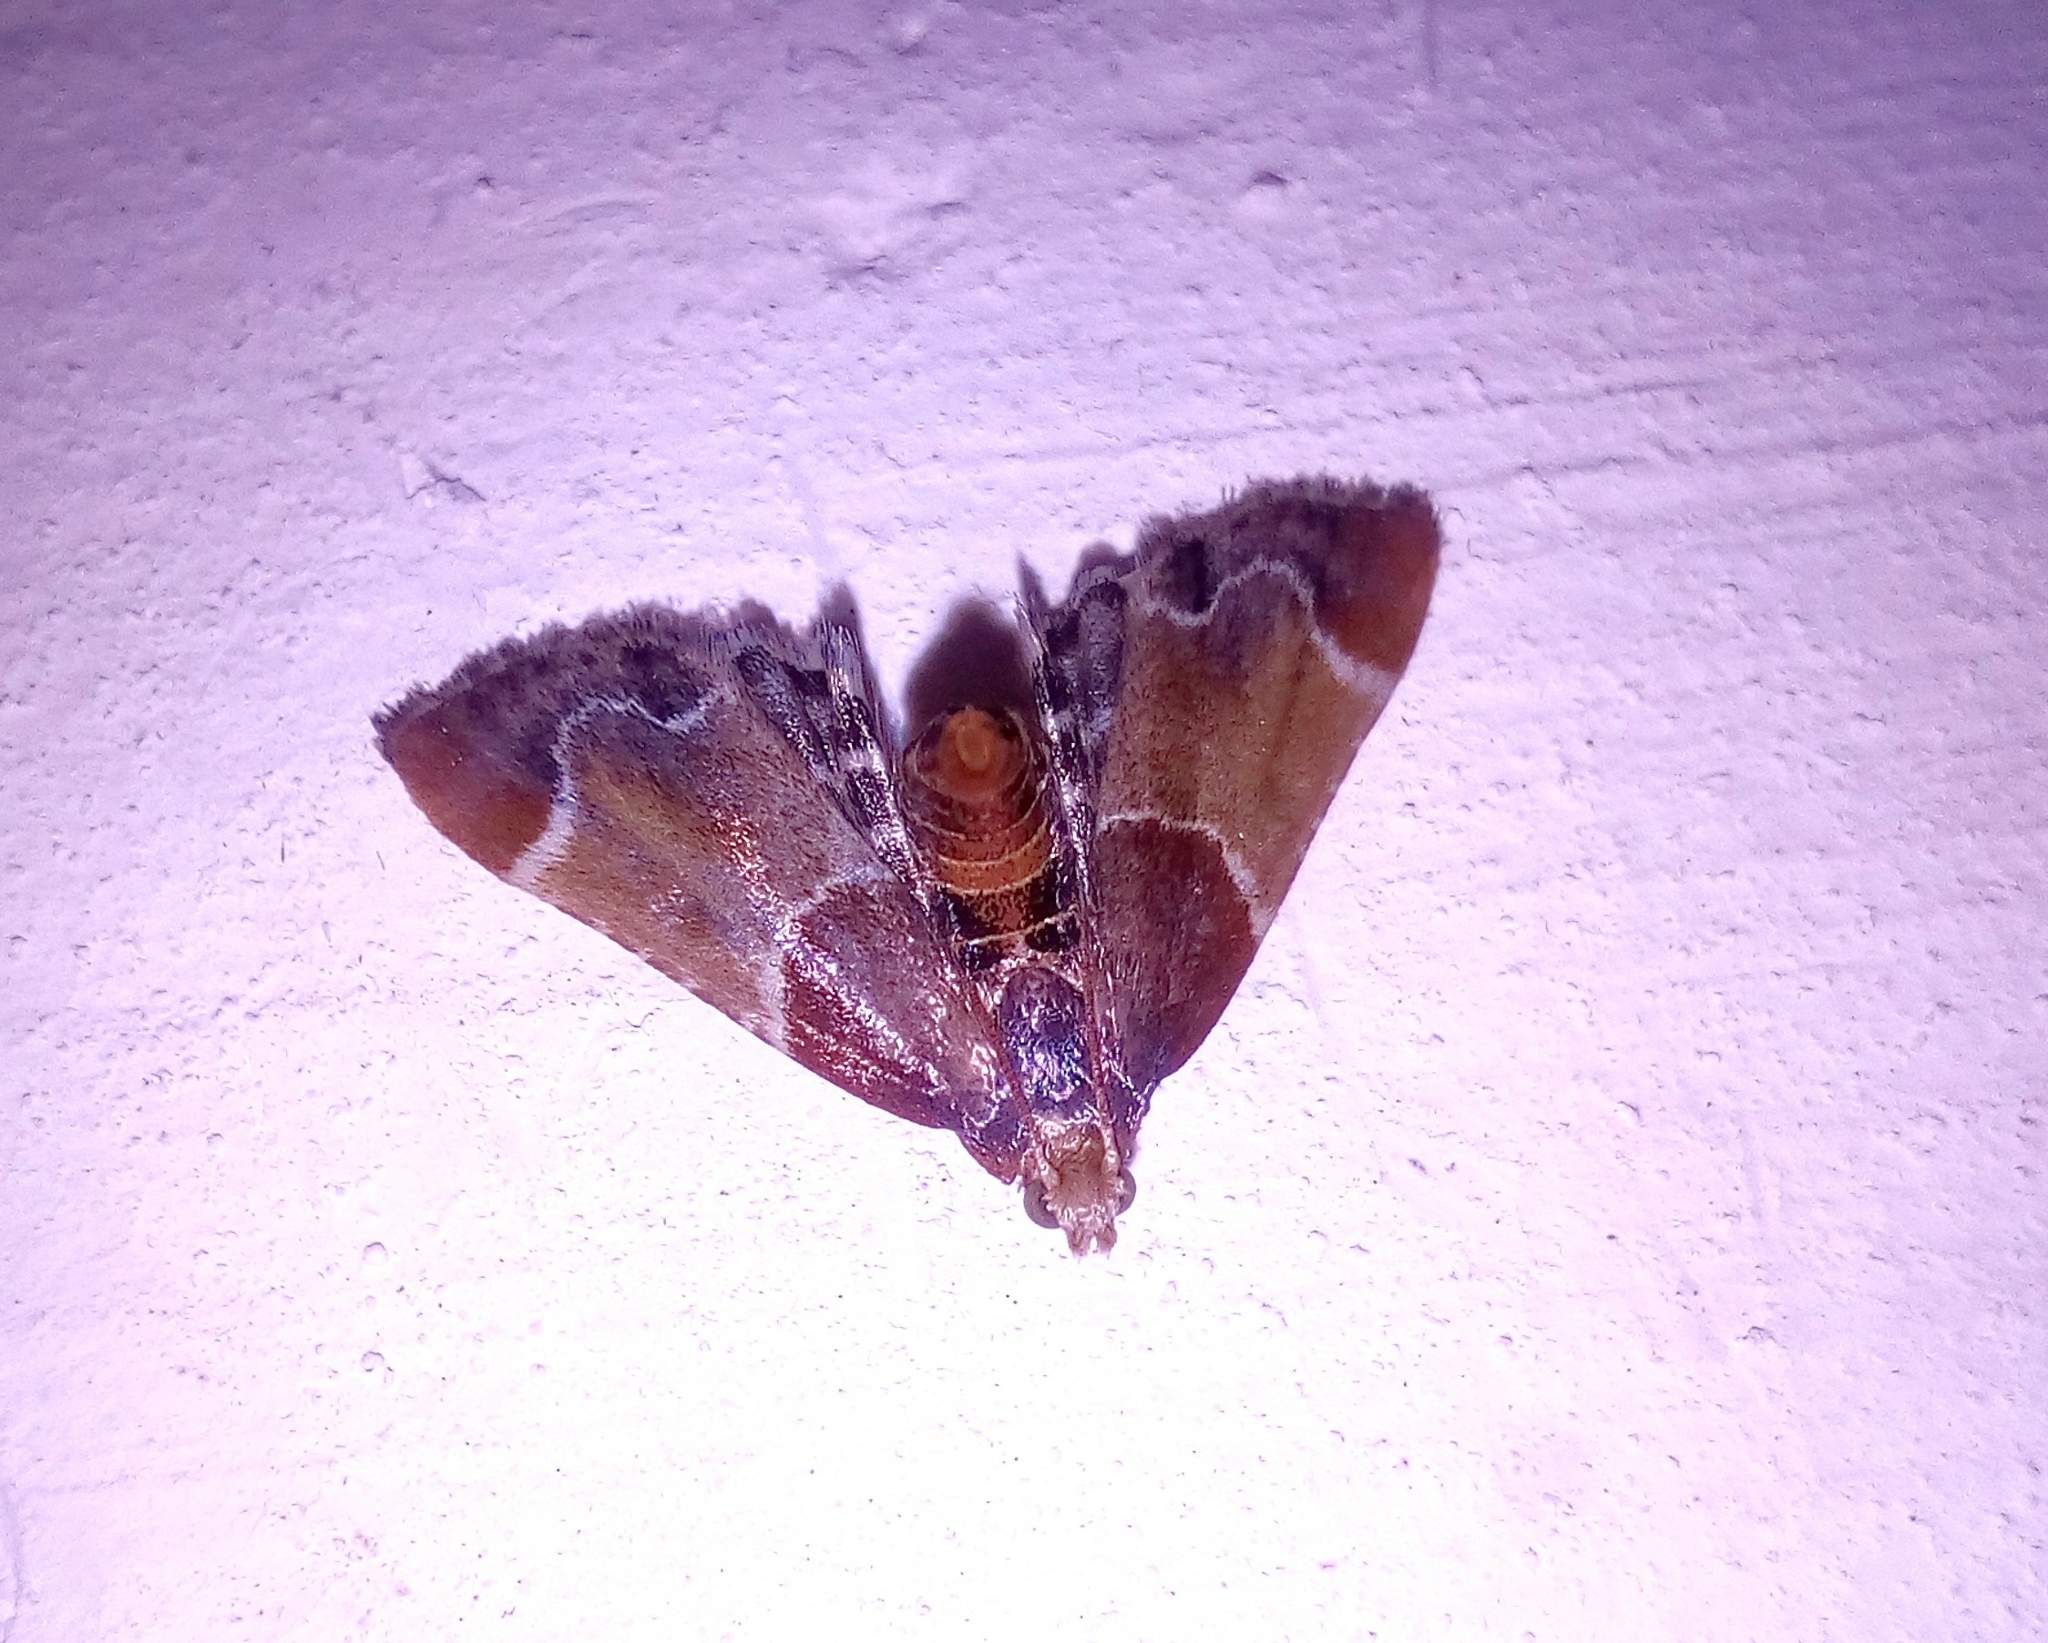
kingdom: Animalia
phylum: Arthropoda
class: Insecta
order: Lepidoptera
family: Pyralidae
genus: Pyralis
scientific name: Pyralis farinalis
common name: Meal moth
